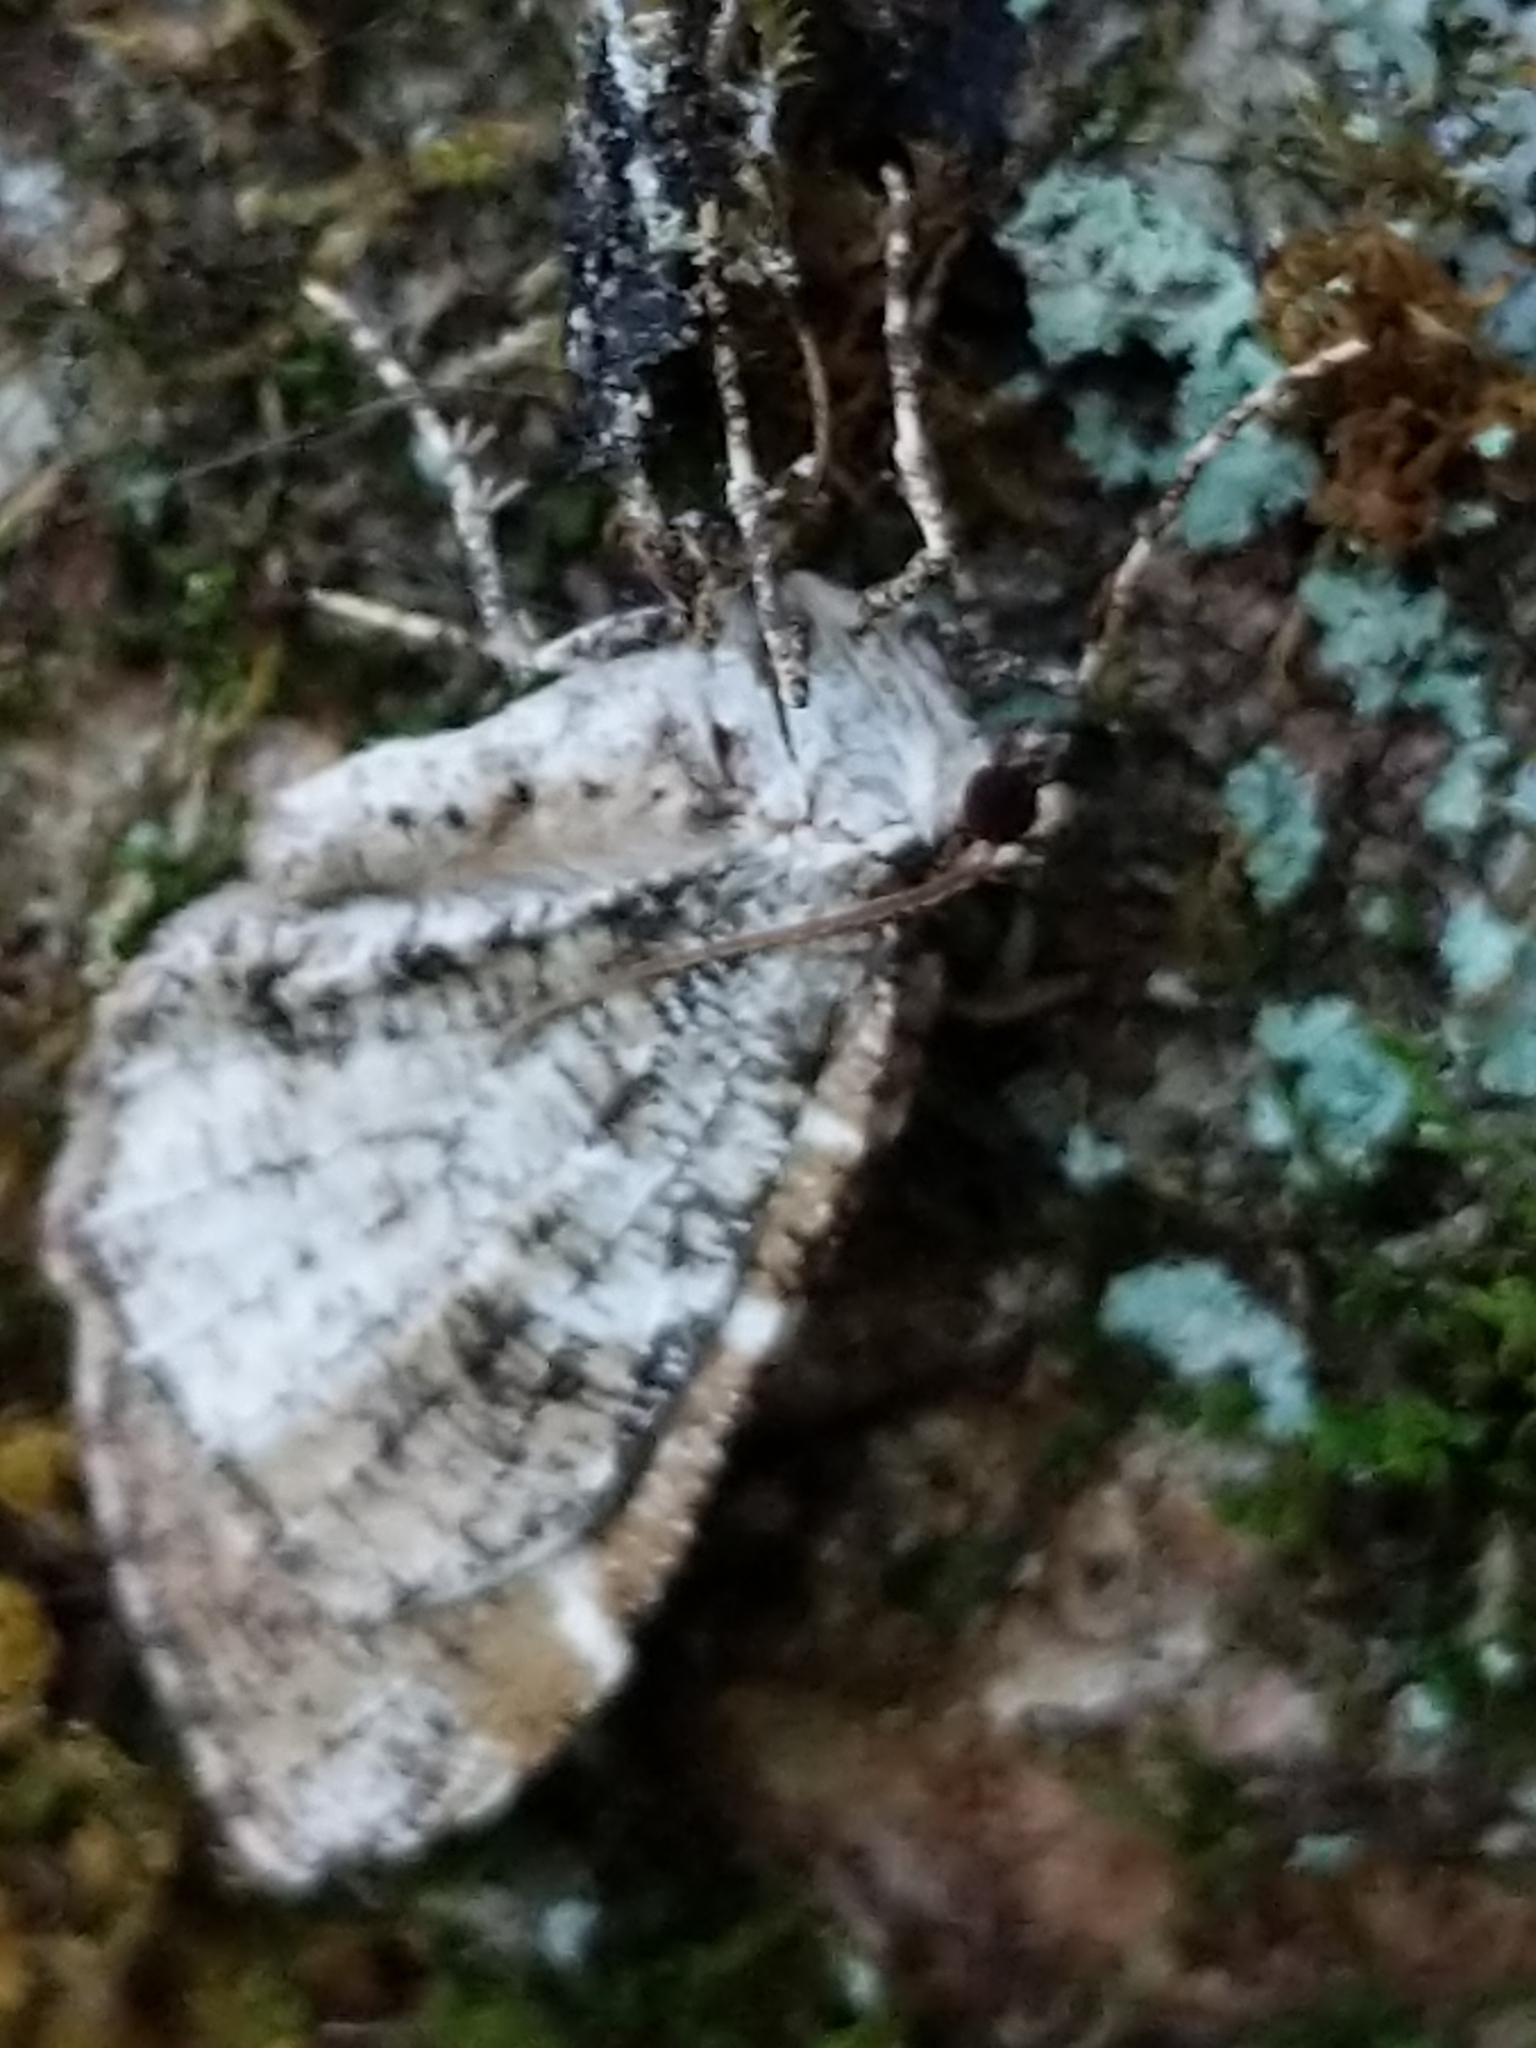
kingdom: Animalia
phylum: Arthropoda
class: Insecta
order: Lepidoptera
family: Geometridae
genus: Stamnodes
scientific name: Stamnodes gibbicostata
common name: Shiny gray carpet moth
